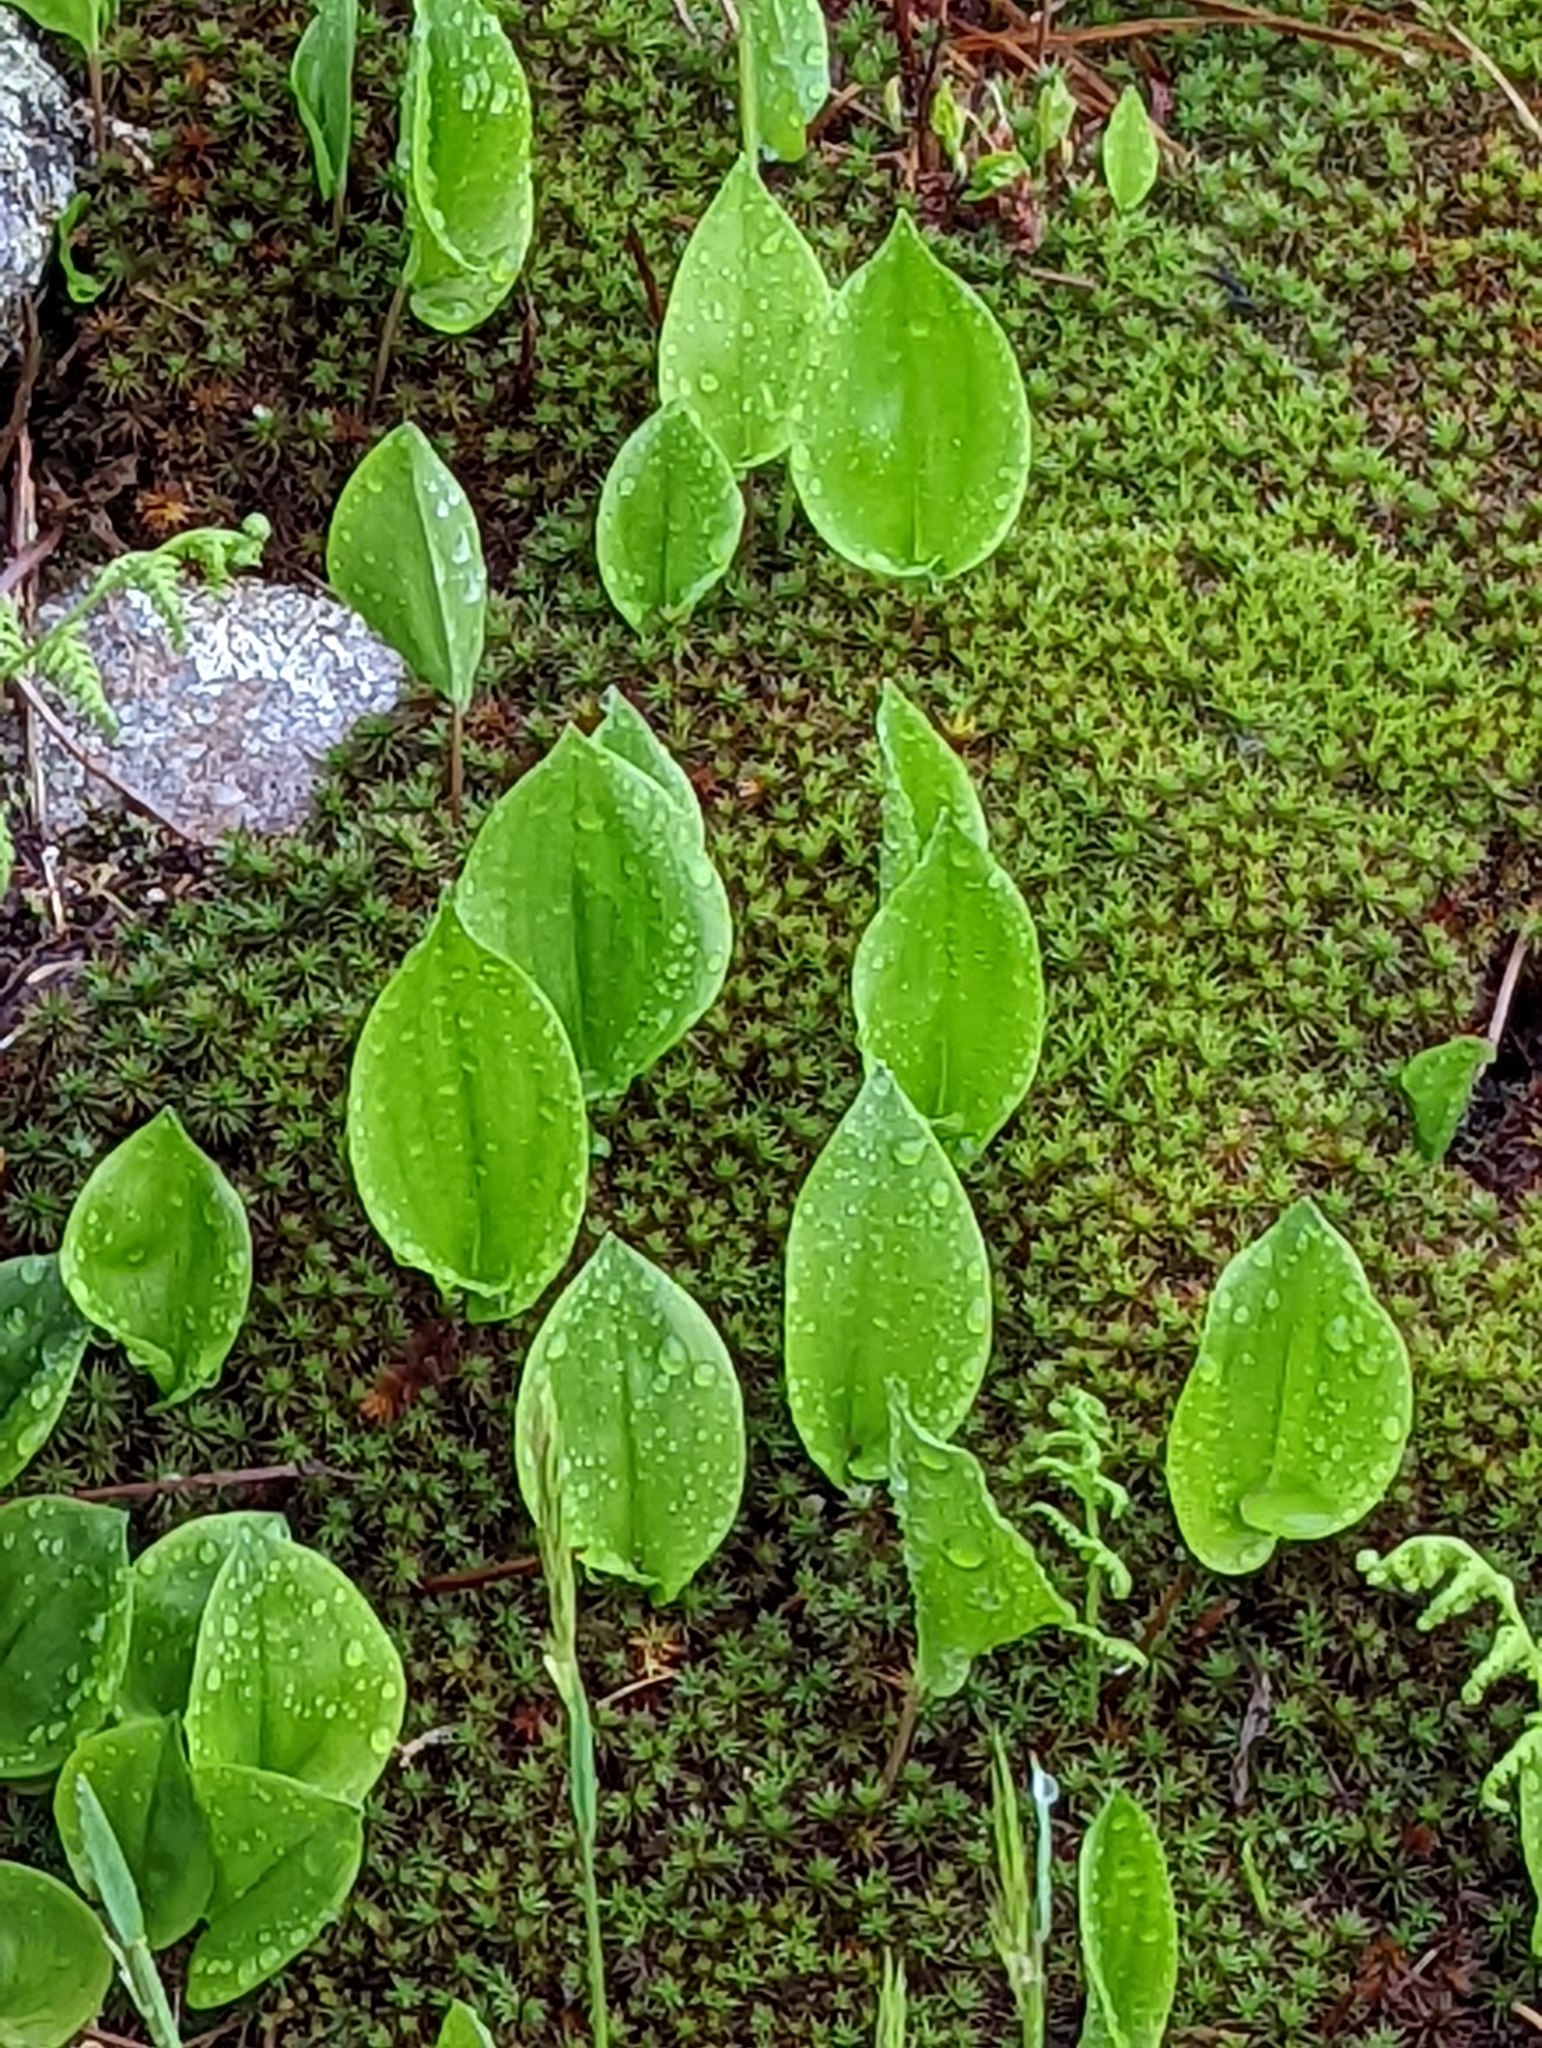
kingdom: Plantae
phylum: Tracheophyta
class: Liliopsida
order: Asparagales
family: Asparagaceae
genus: Maianthemum
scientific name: Maianthemum canadense
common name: False lily-of-the-valley
